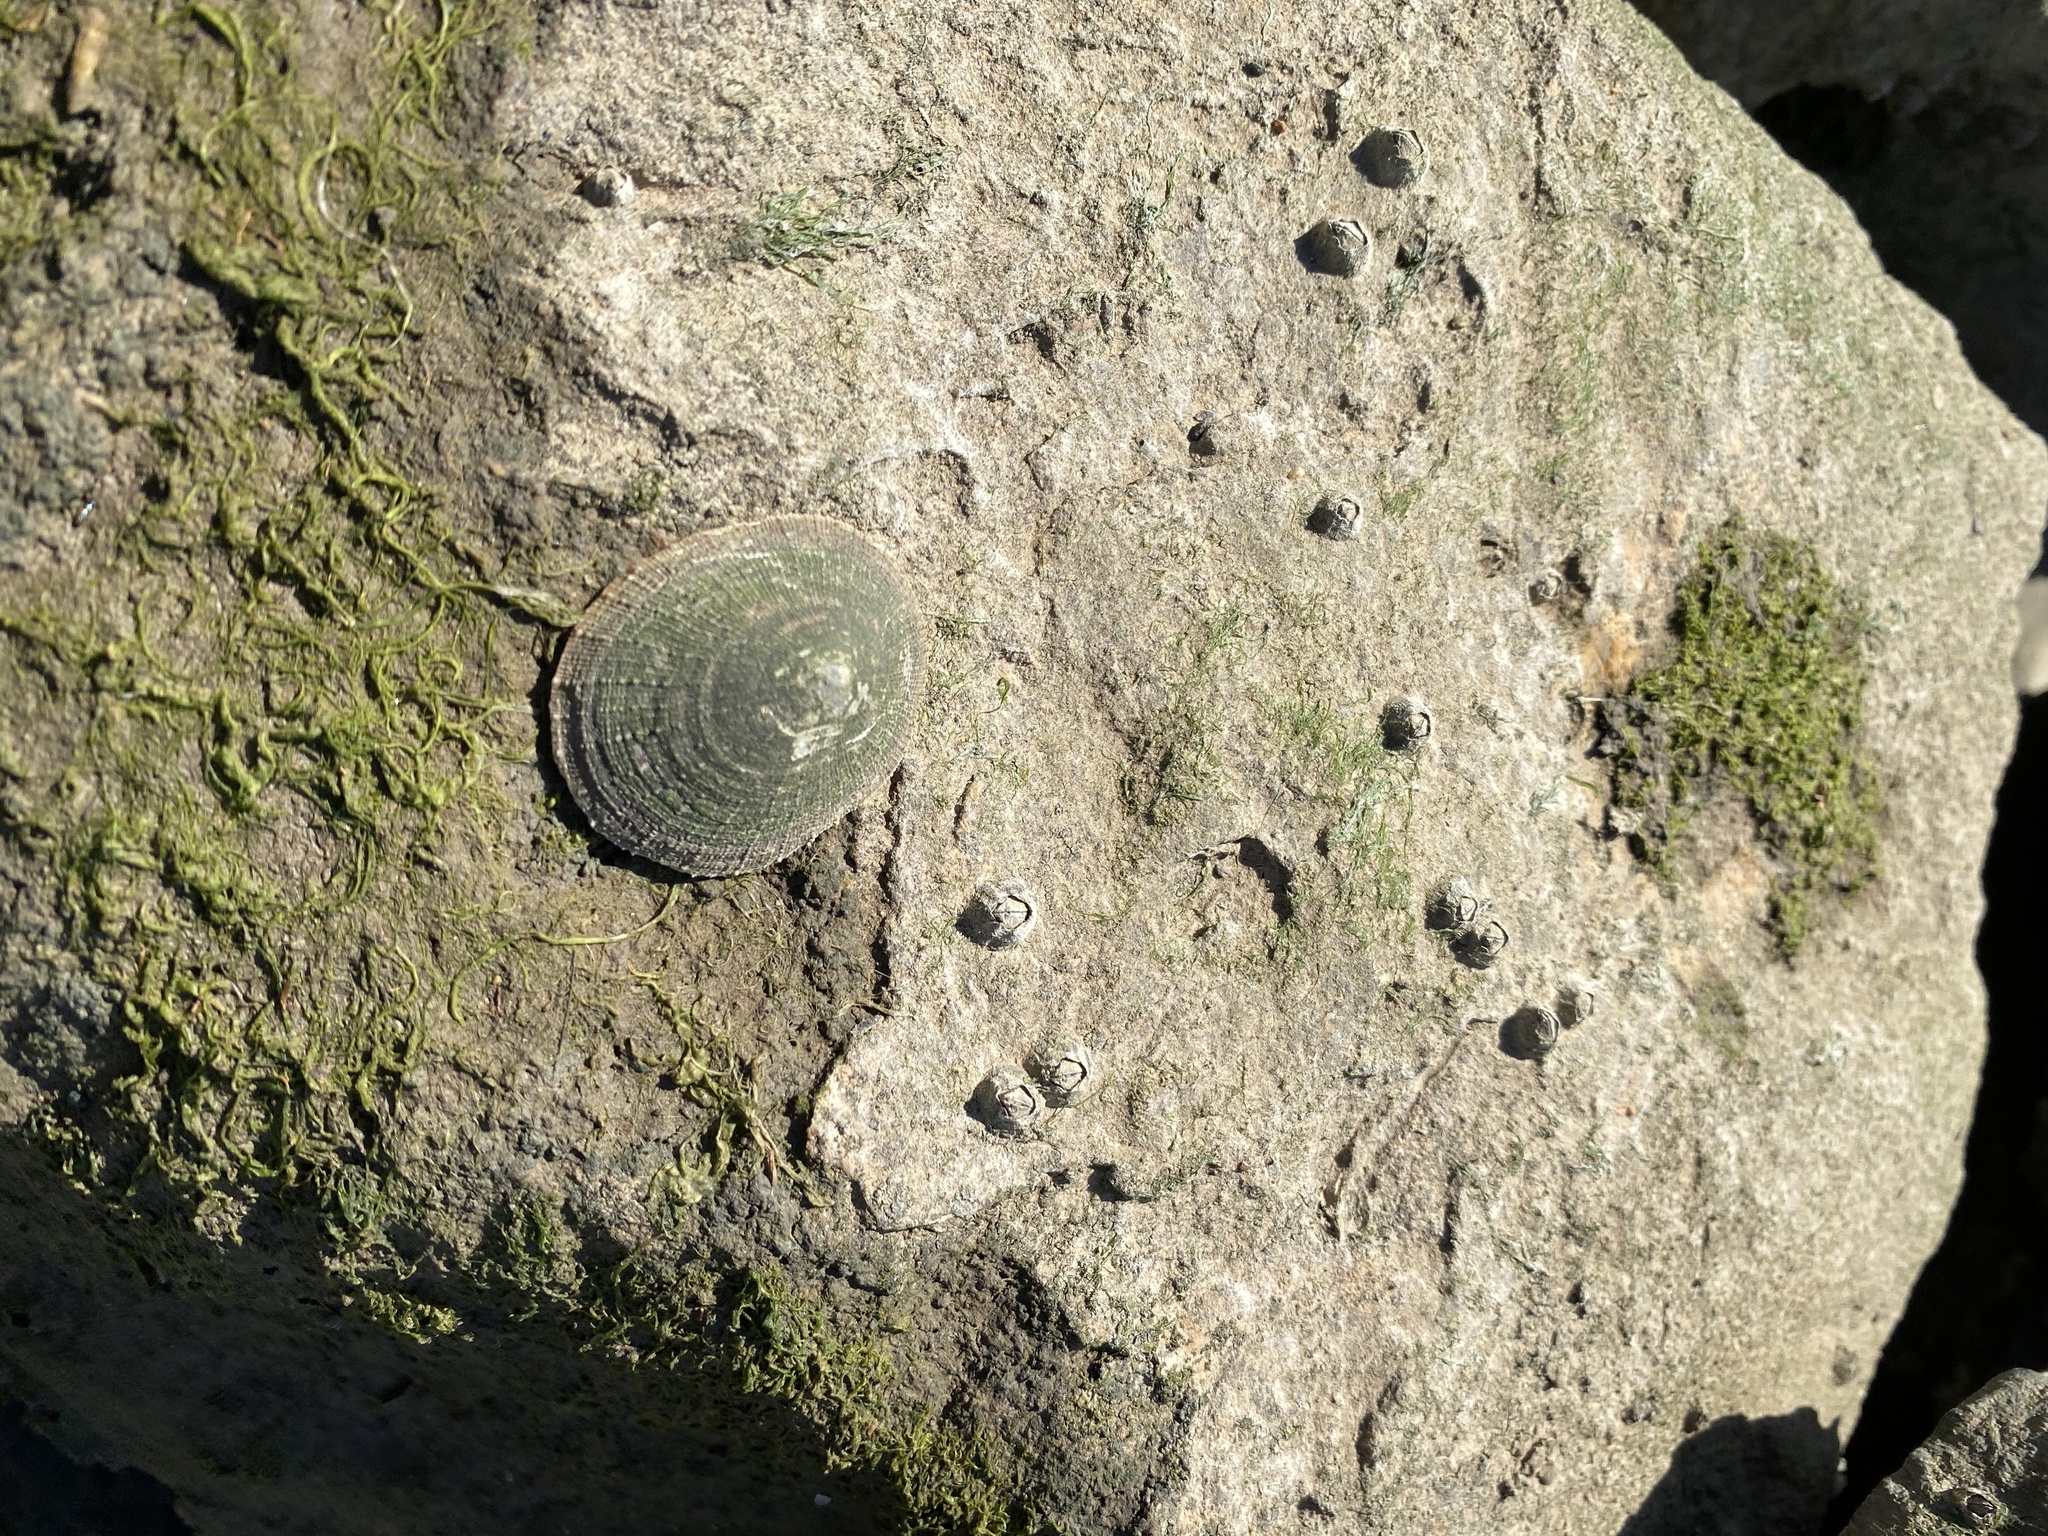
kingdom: Animalia
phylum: Arthropoda
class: Maxillopoda
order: Sessilia
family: Balanidae
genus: Balanus
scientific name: Balanus glandula
